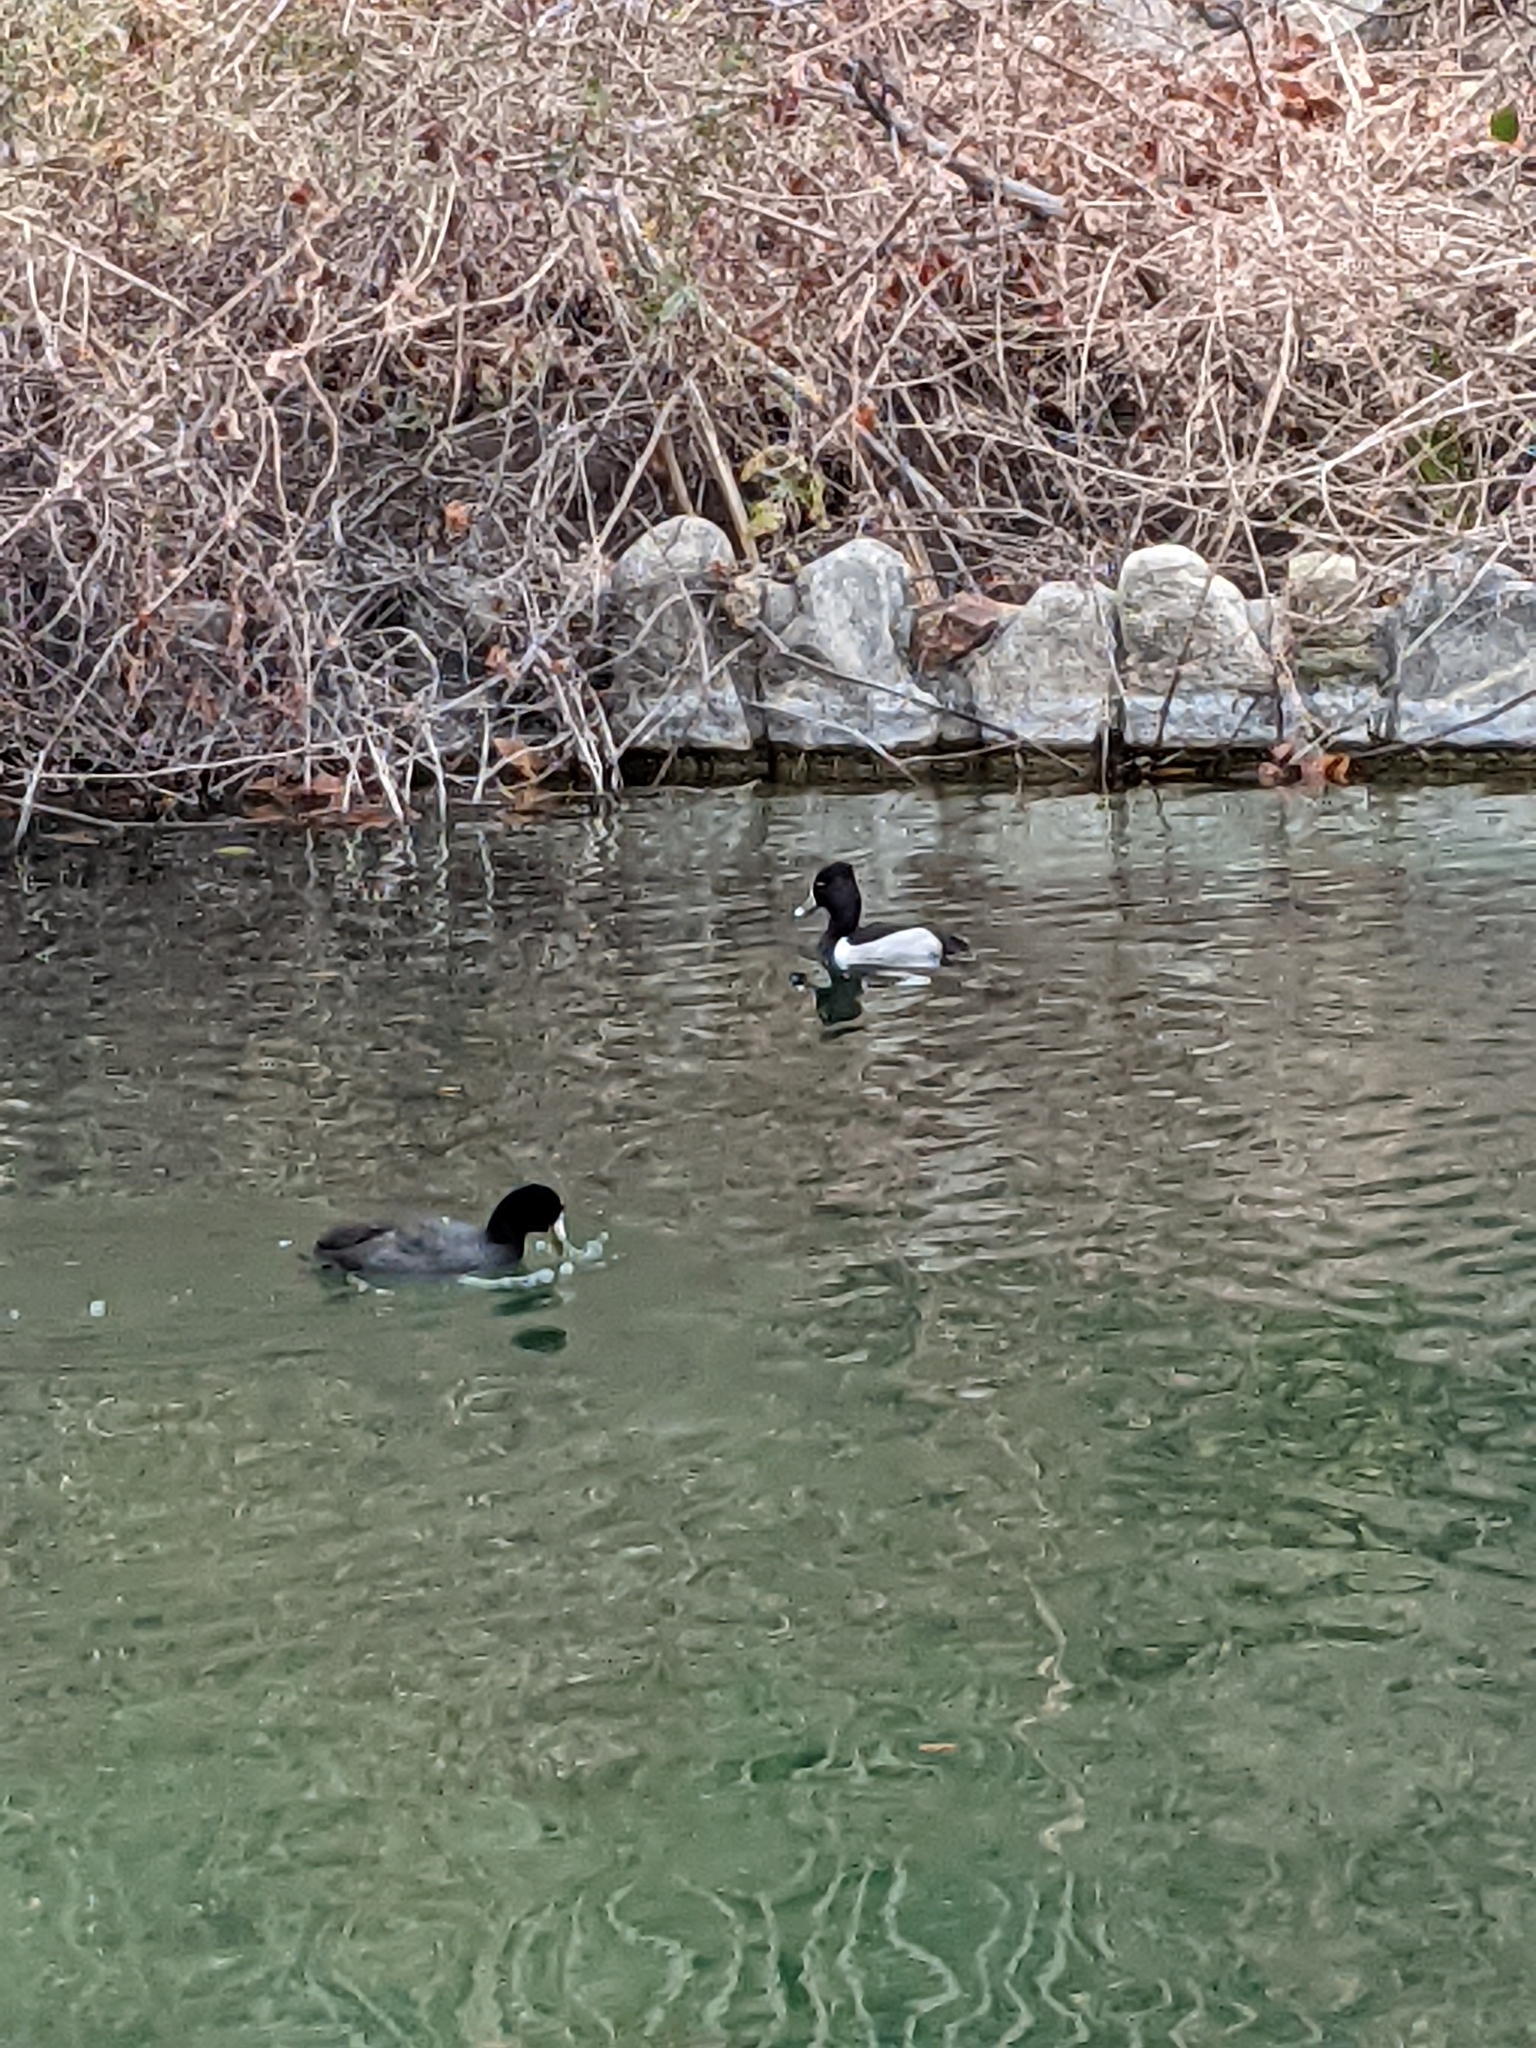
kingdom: Animalia
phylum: Chordata
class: Aves
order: Anseriformes
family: Anatidae
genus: Aythya
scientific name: Aythya collaris
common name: Ring-necked duck
